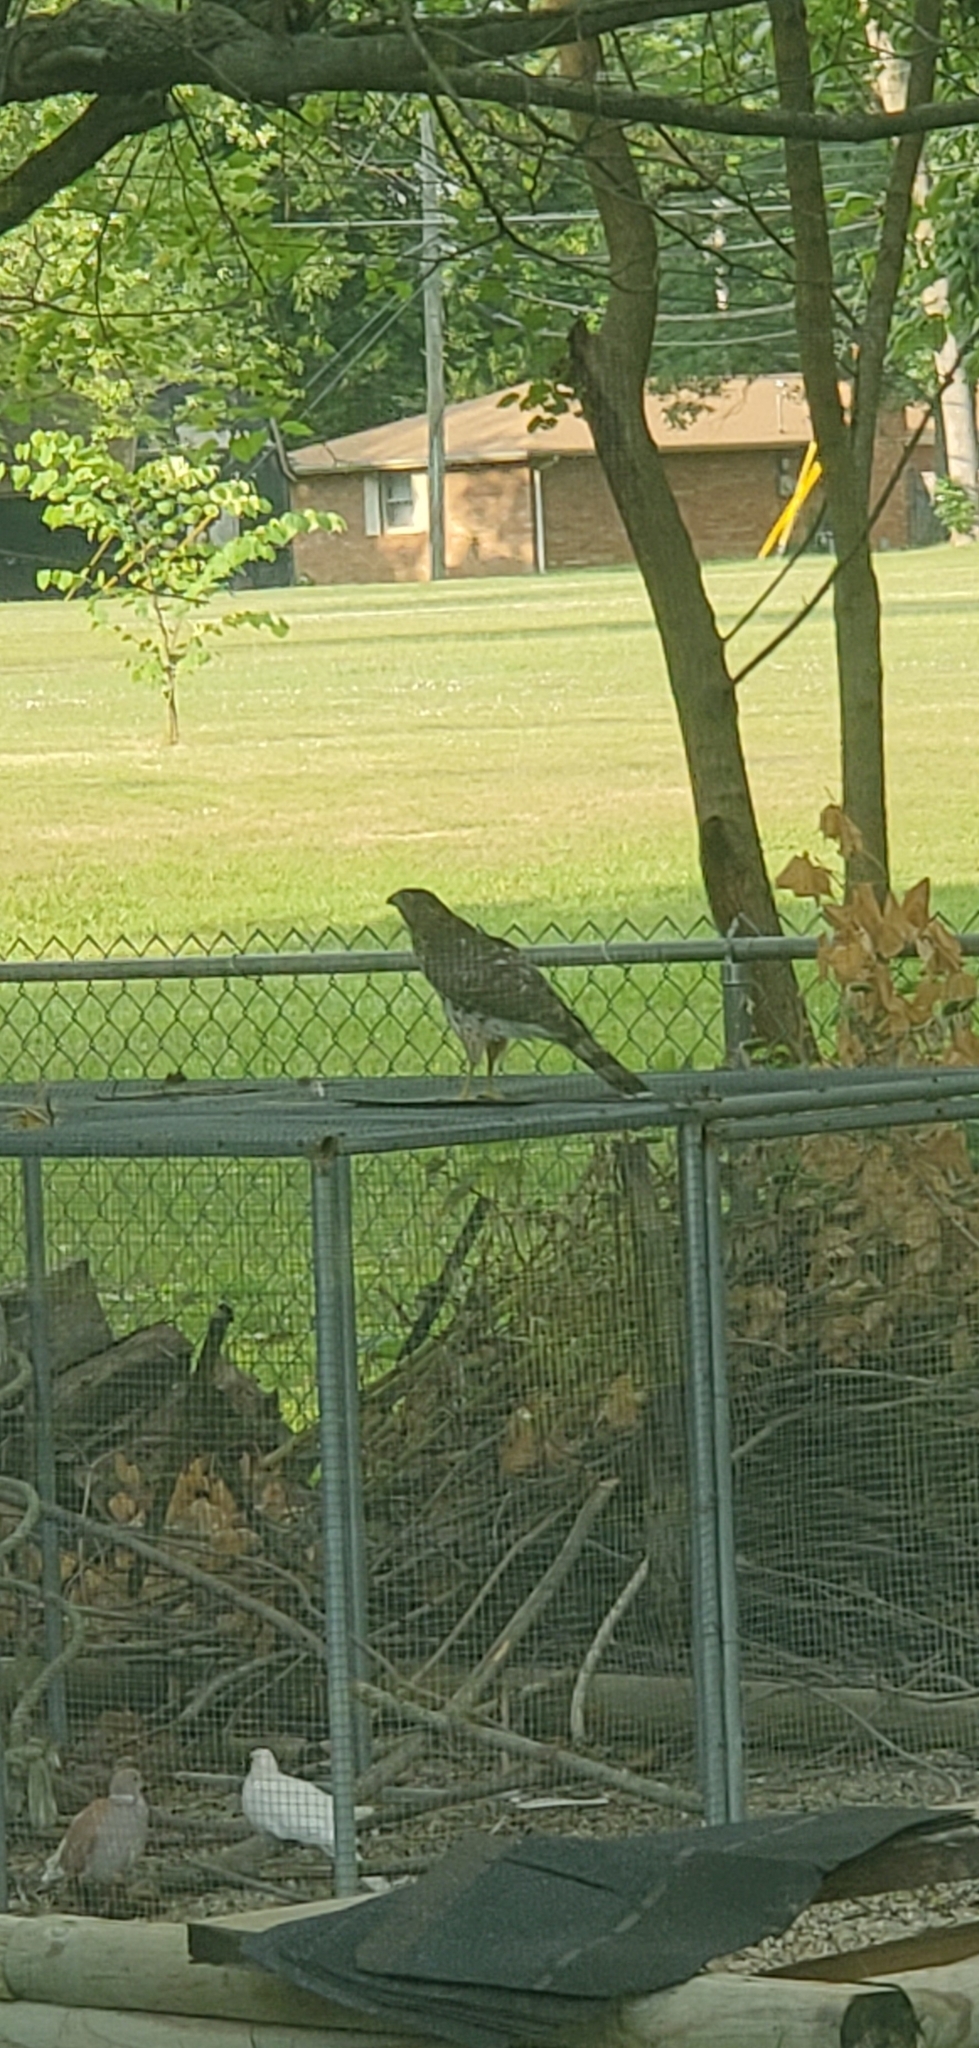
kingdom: Animalia
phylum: Chordata
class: Aves
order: Accipitriformes
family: Accipitridae
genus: Accipiter
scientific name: Accipiter cooperii
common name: Cooper's hawk
